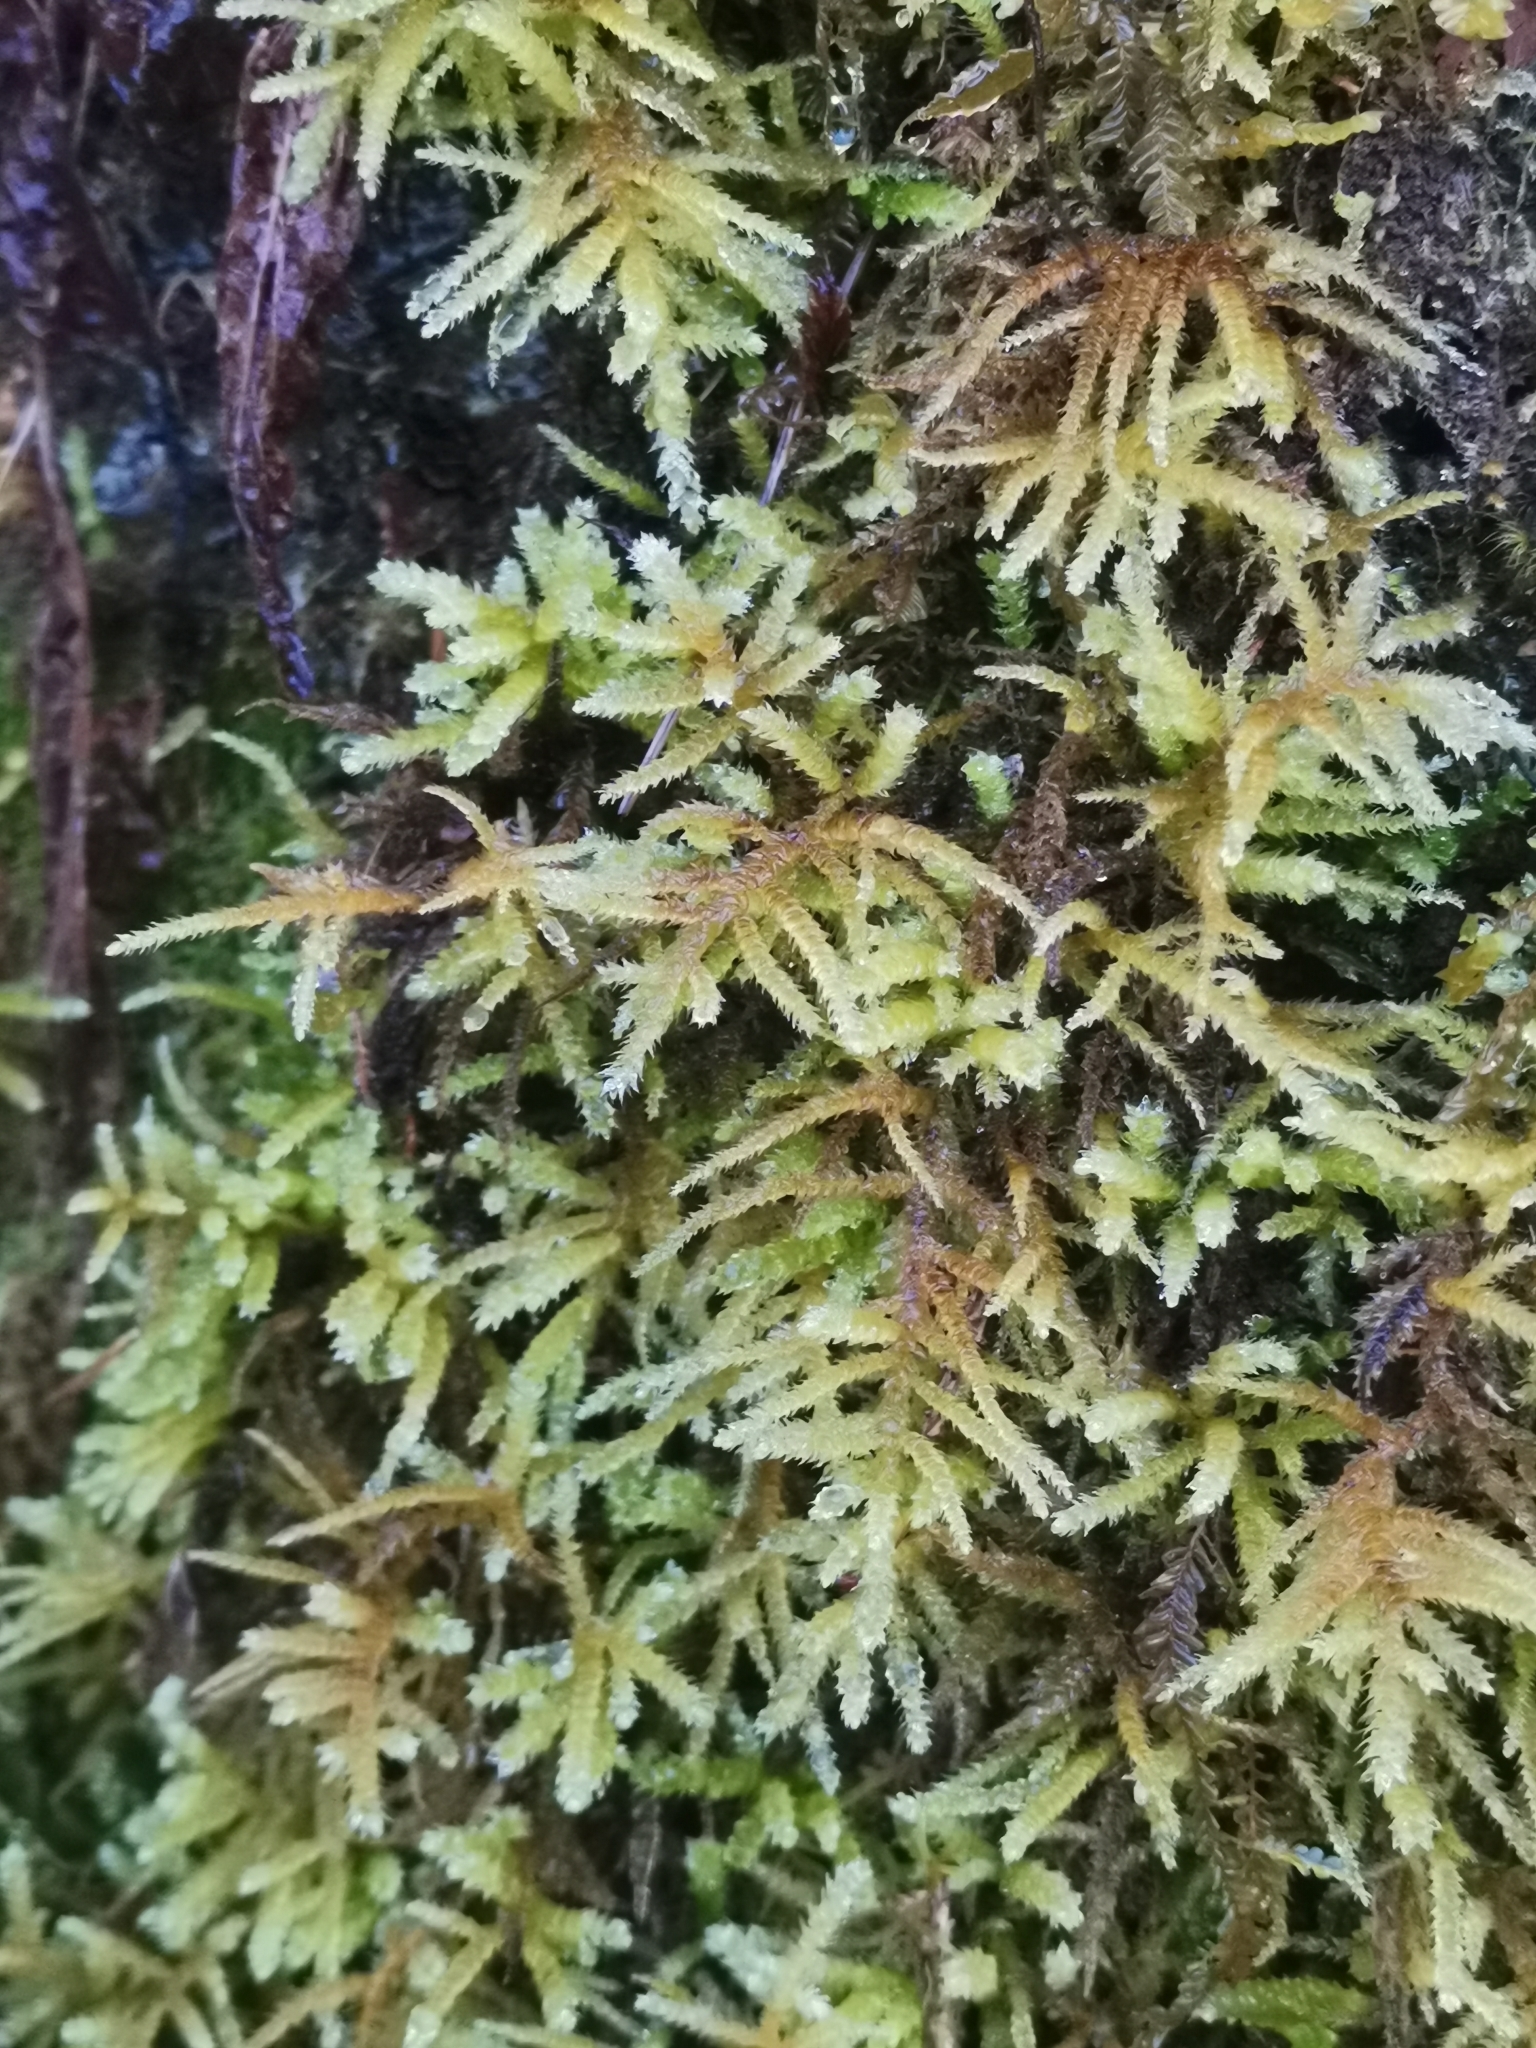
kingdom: Plantae
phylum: Bryophyta
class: Bryopsida
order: Hypnales
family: Brachytheciaceae
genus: Eurhynchium
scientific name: Eurhynchium striatum
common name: Common striated feather-moss
